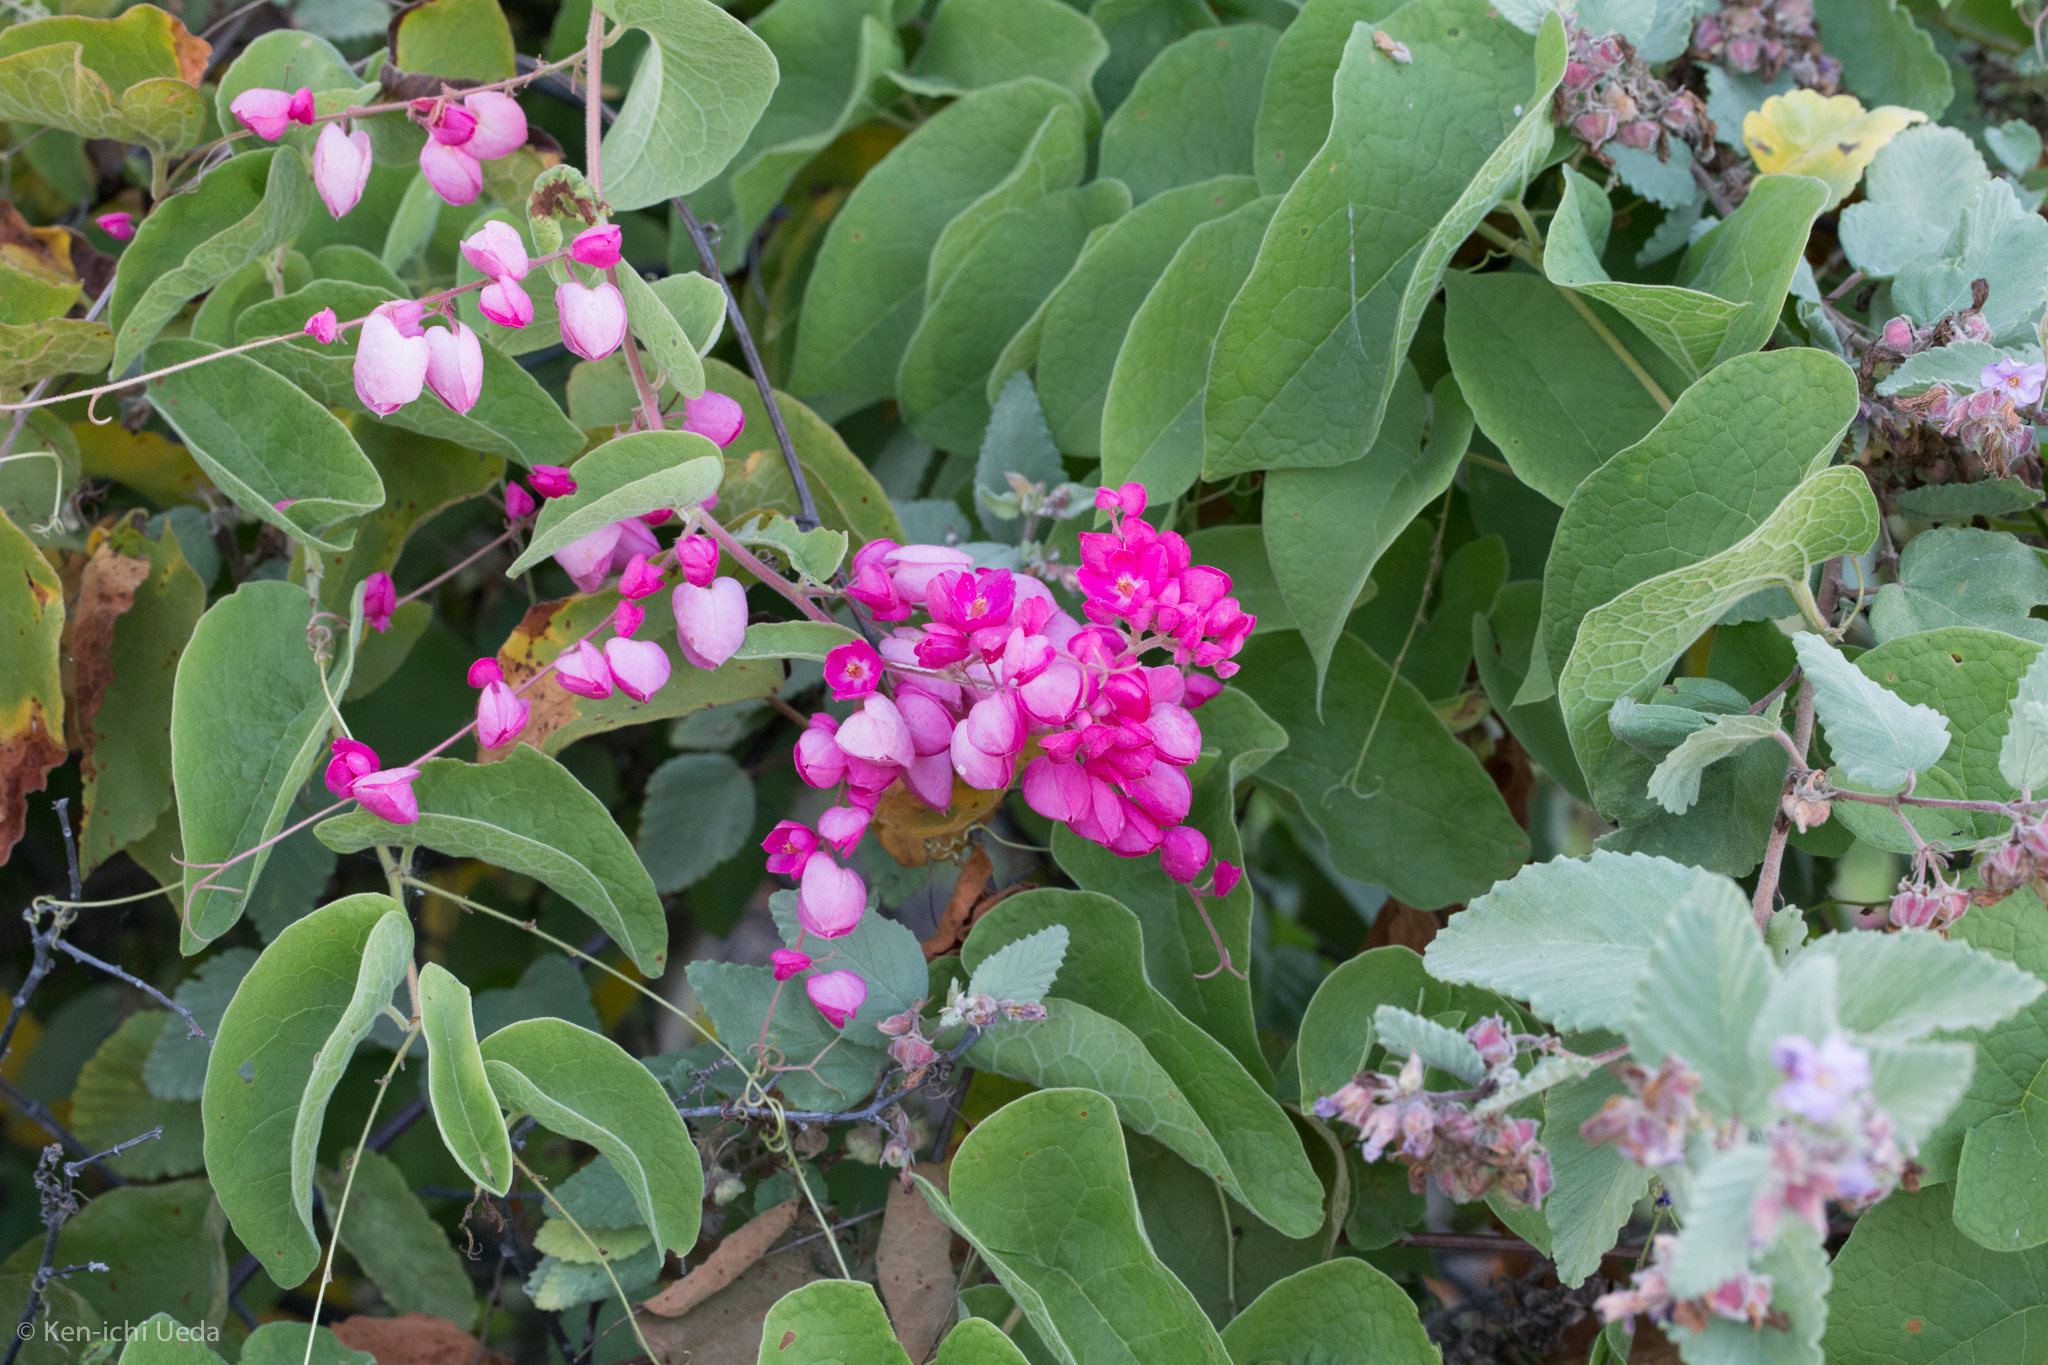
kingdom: Plantae
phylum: Tracheophyta
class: Magnoliopsida
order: Caryophyllales
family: Polygonaceae
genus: Antigonon
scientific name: Antigonon leptopus
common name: Coral vine
